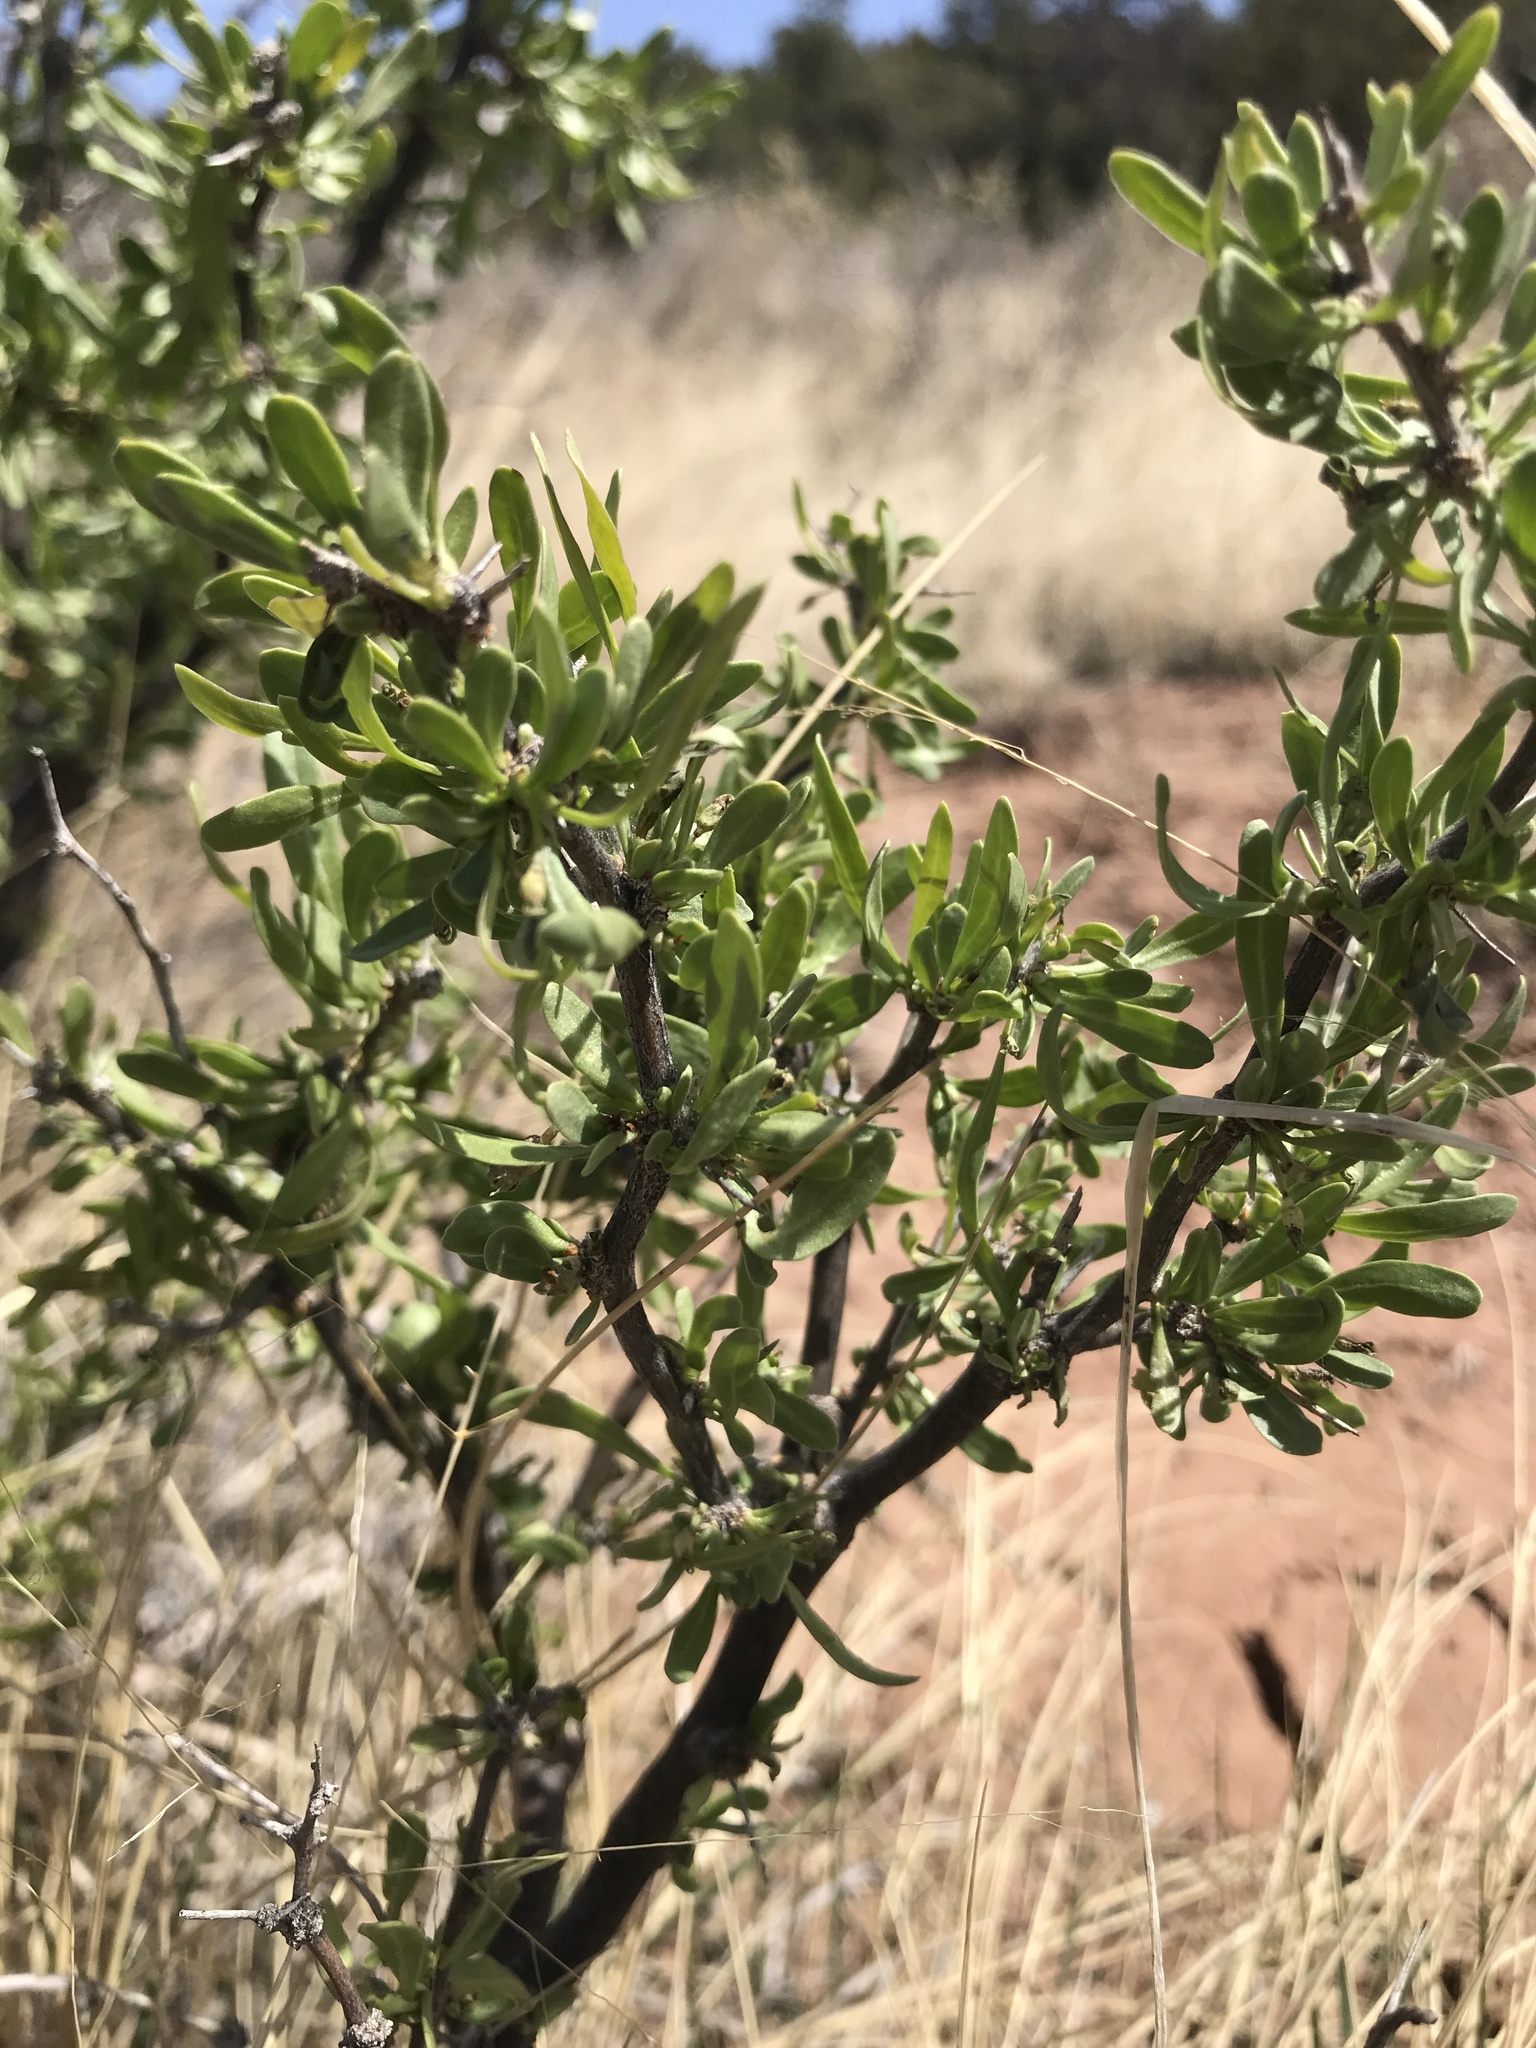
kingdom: Plantae
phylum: Tracheophyta
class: Magnoliopsida
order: Solanales
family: Solanaceae
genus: Lycium
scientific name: Lycium pallidum
